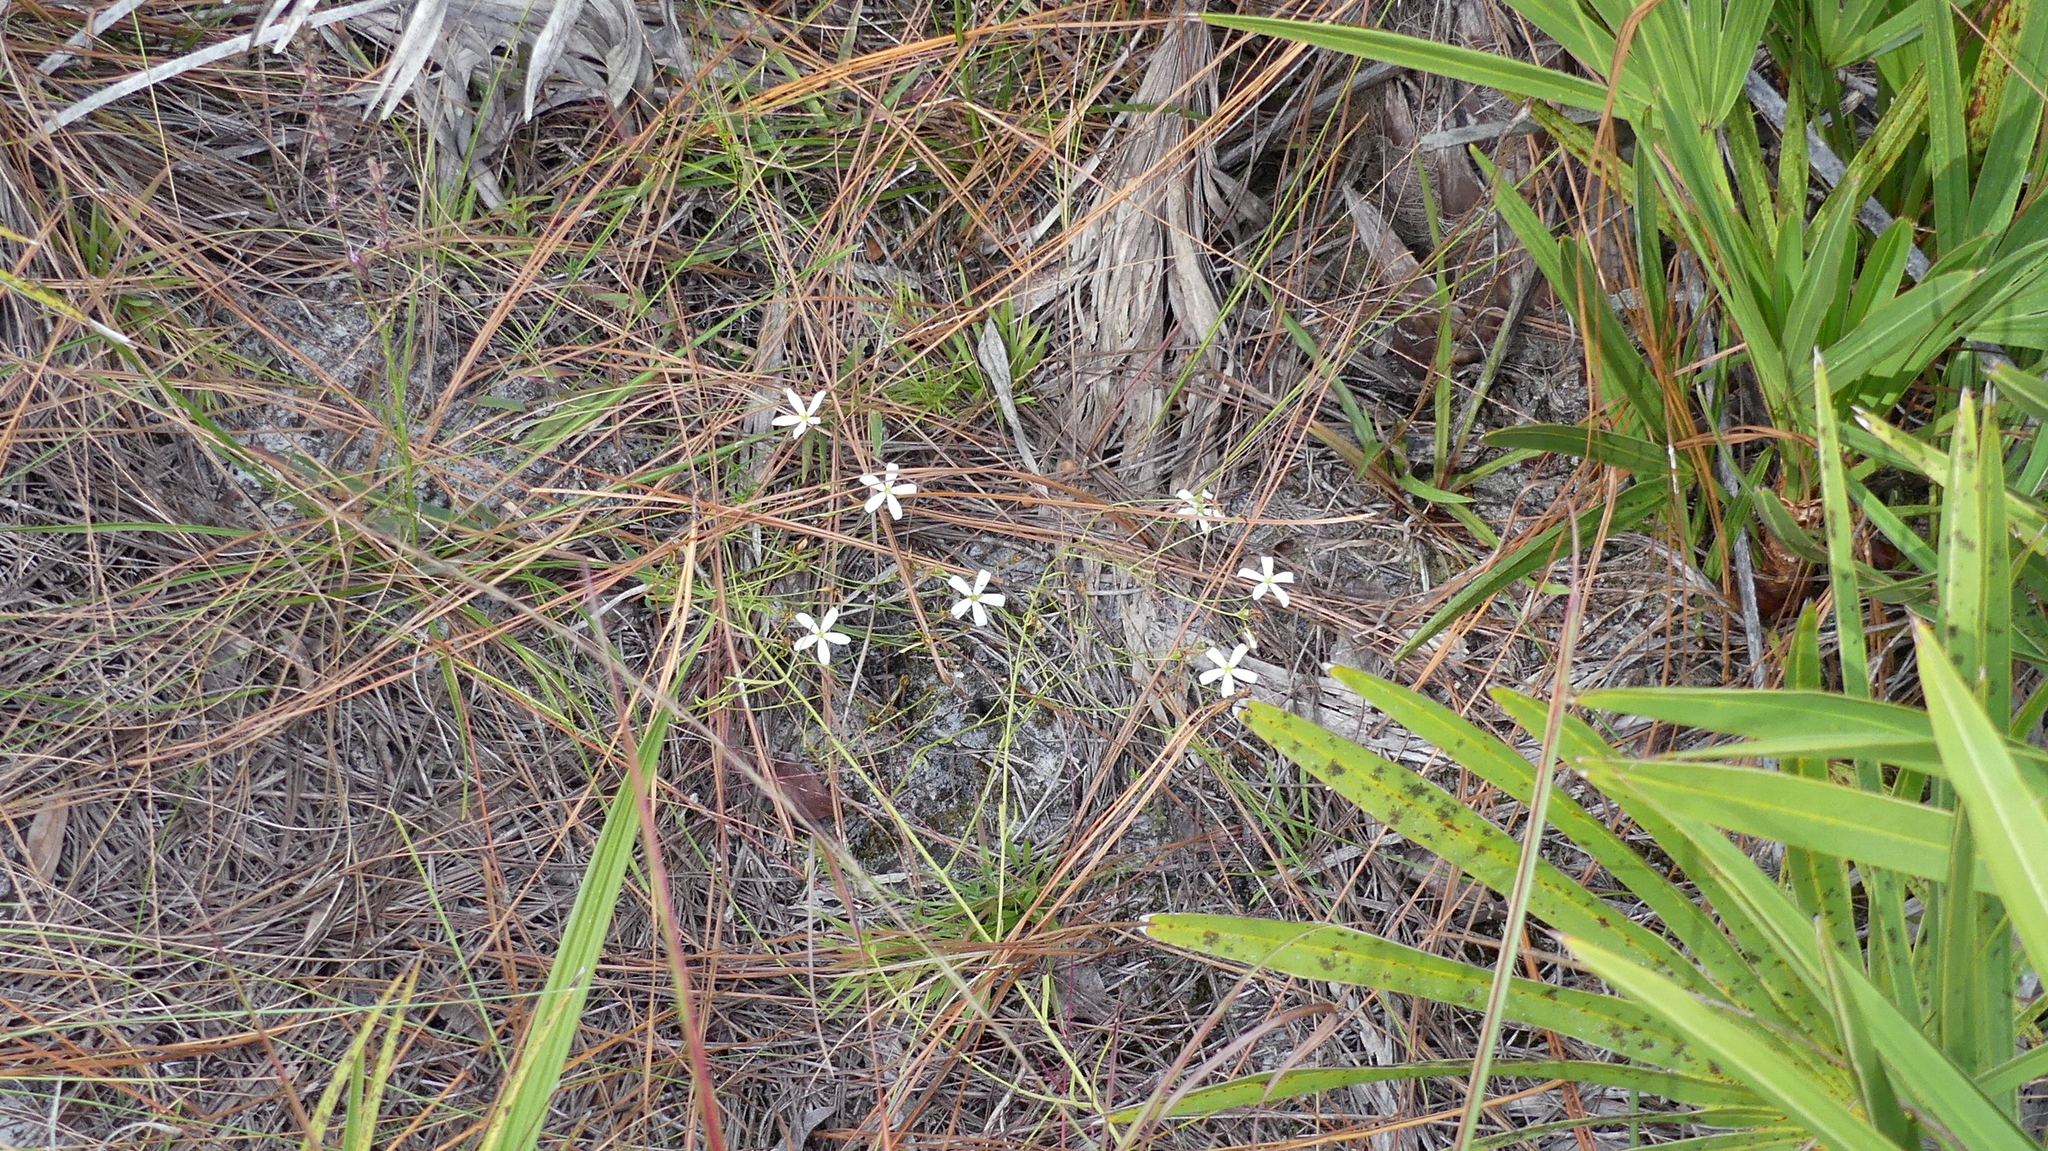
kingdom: Plantae
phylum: Tracheophyta
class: Magnoliopsida
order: Gentianales
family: Gentianaceae
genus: Sabatia
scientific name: Sabatia brevifolia
